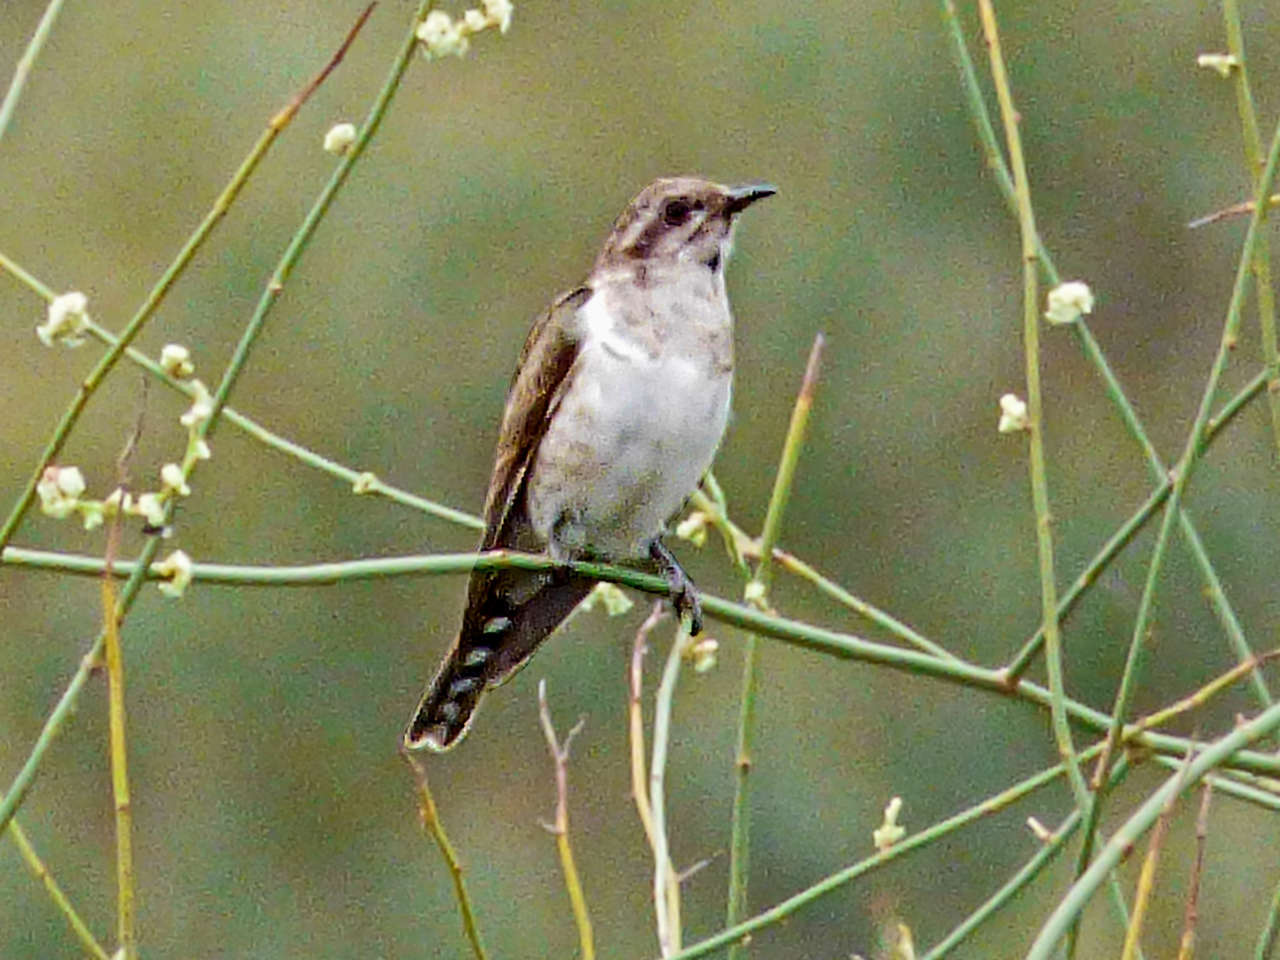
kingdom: Animalia
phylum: Chordata
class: Aves
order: Cuculiformes
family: Cuculidae
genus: Chrysococcyx
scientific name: Chrysococcyx basalis
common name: Horsfield's bronze cuckoo
